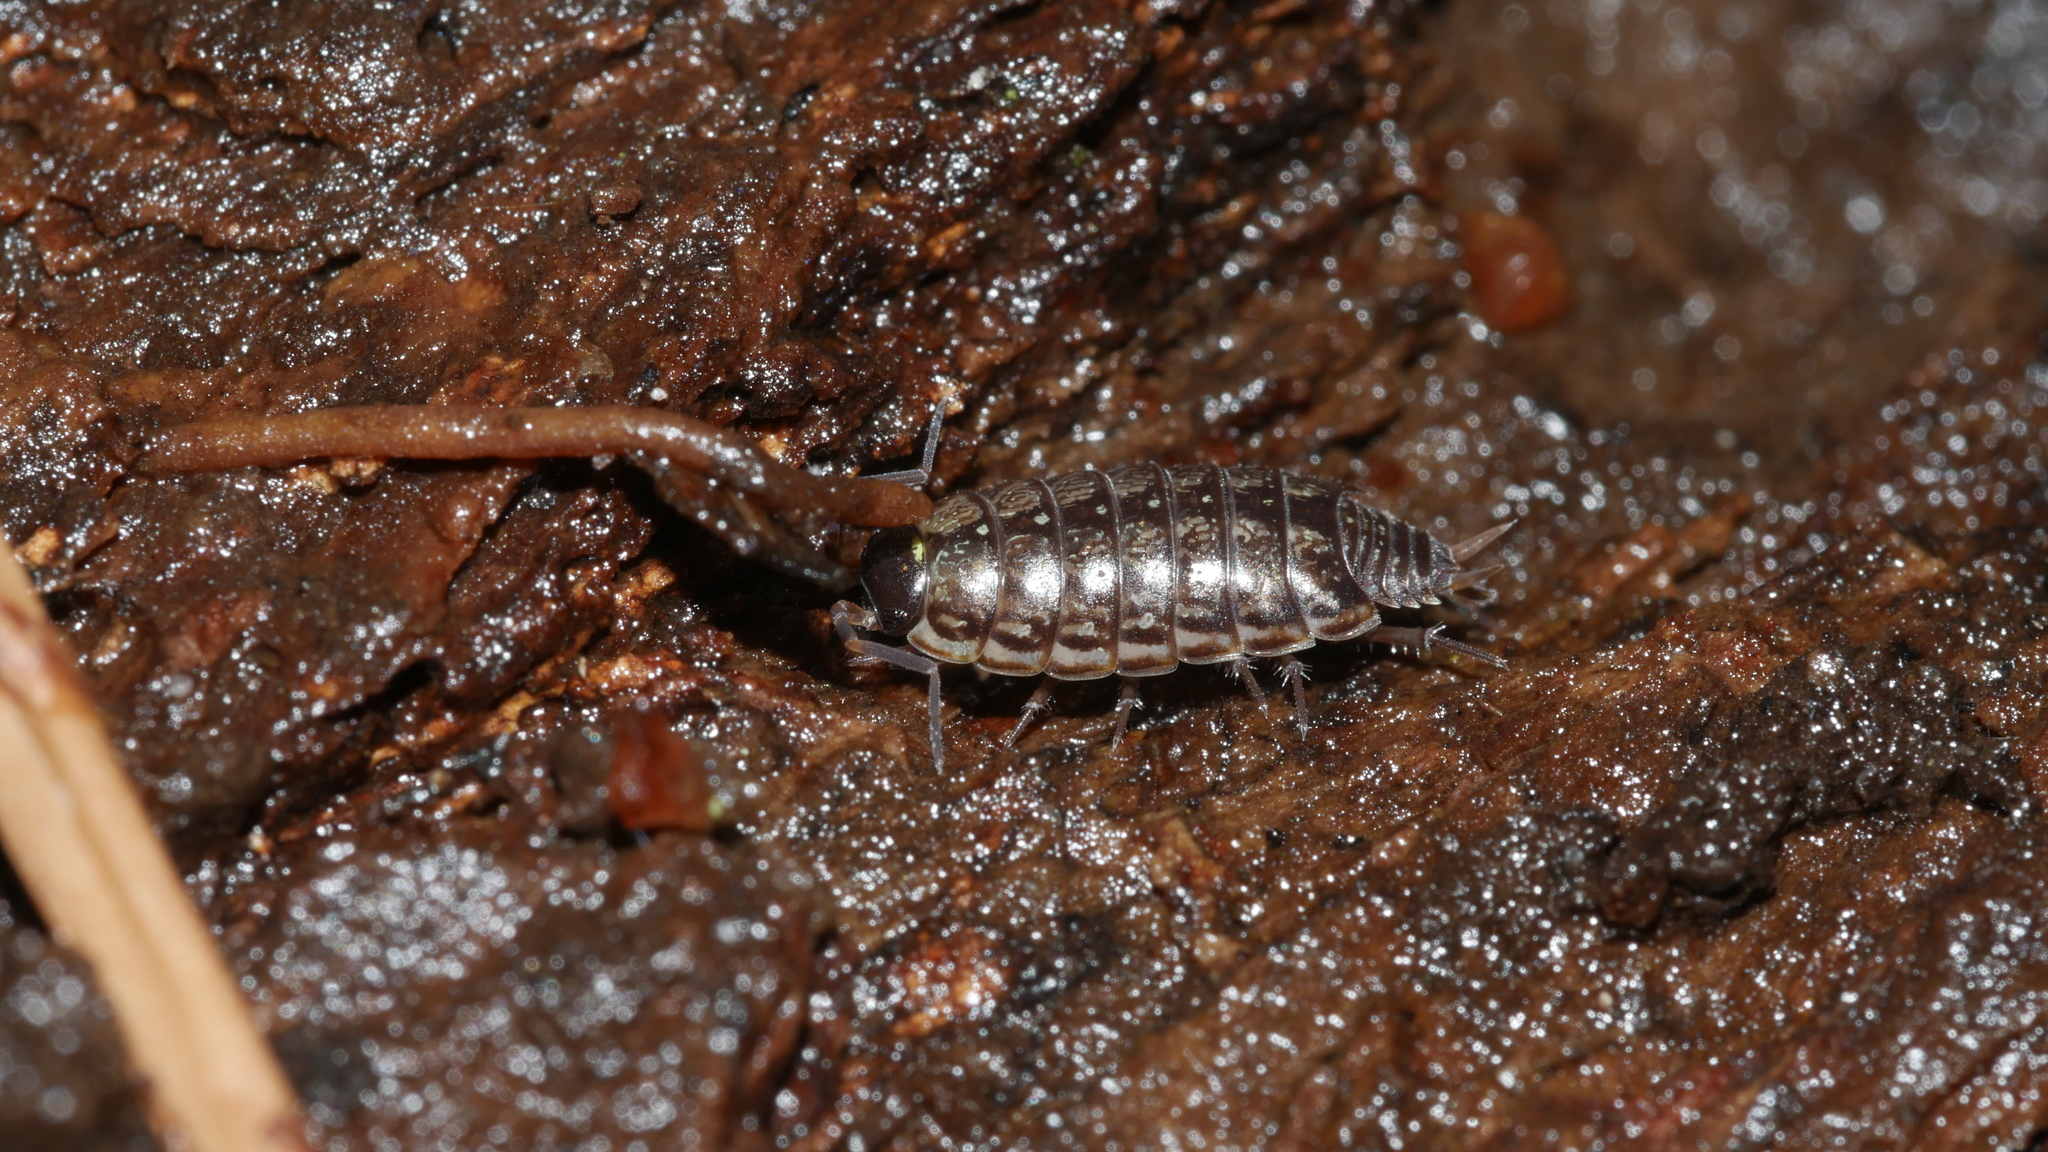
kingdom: Animalia
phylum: Arthropoda
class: Malacostraca
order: Isopoda
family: Philosciidae
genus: Philoscia
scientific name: Philoscia muscorum
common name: Common striped woodlouse
